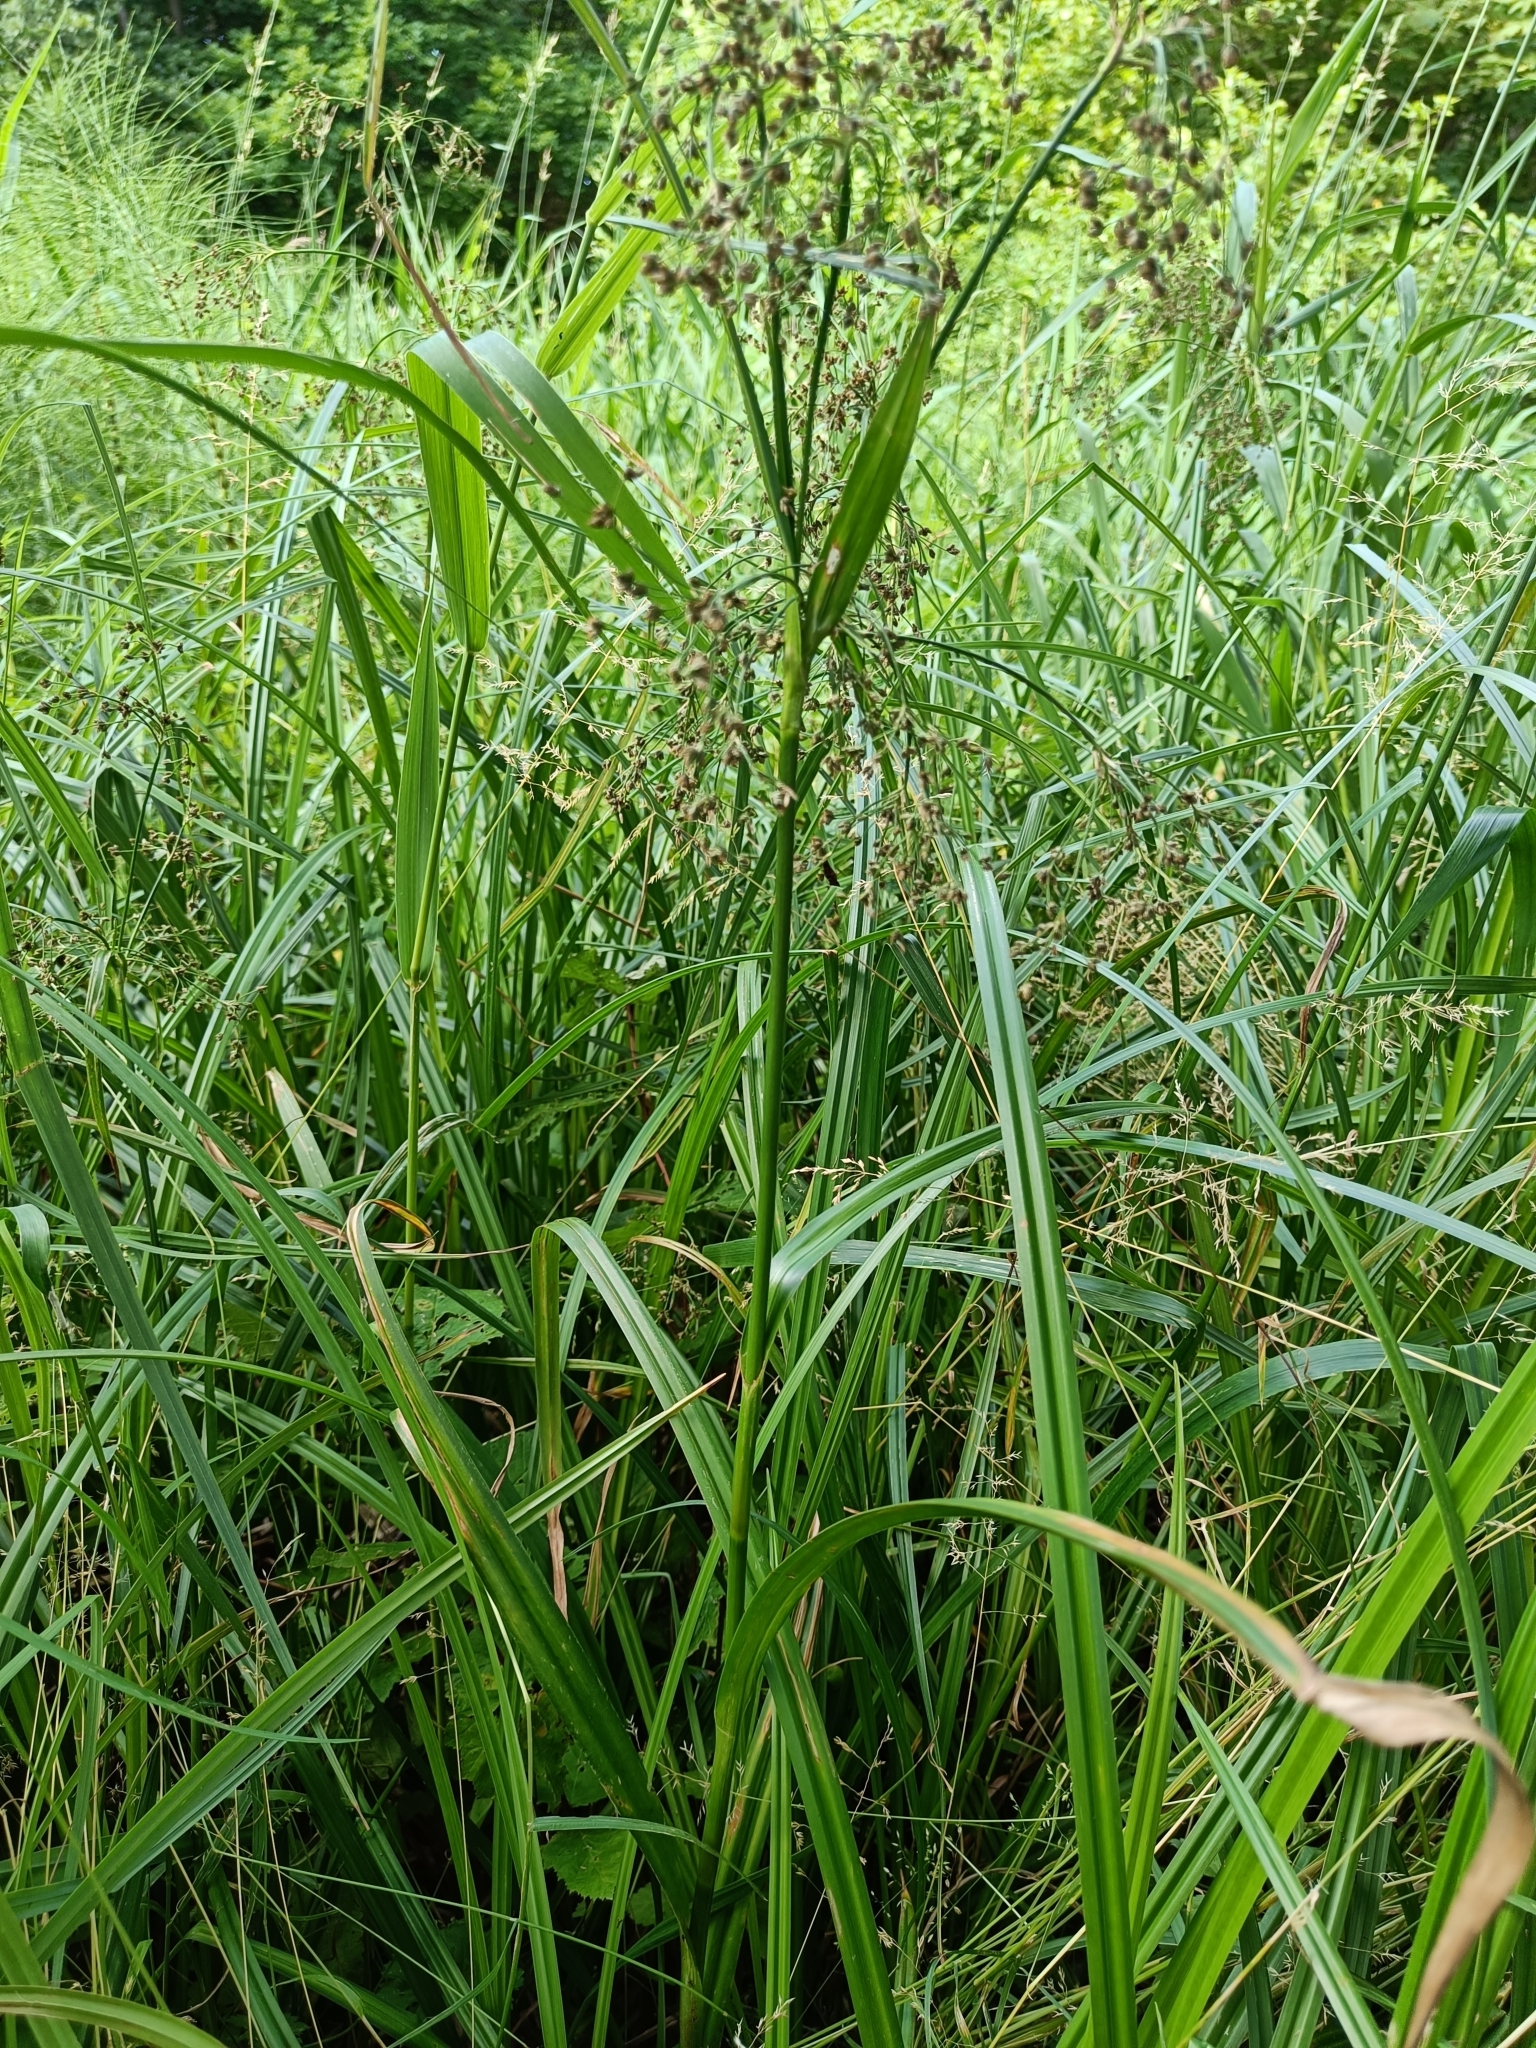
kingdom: Plantae
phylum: Tracheophyta
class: Liliopsida
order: Poales
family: Cyperaceae
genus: Scirpus
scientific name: Scirpus sylvaticus
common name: Wood club-rush
